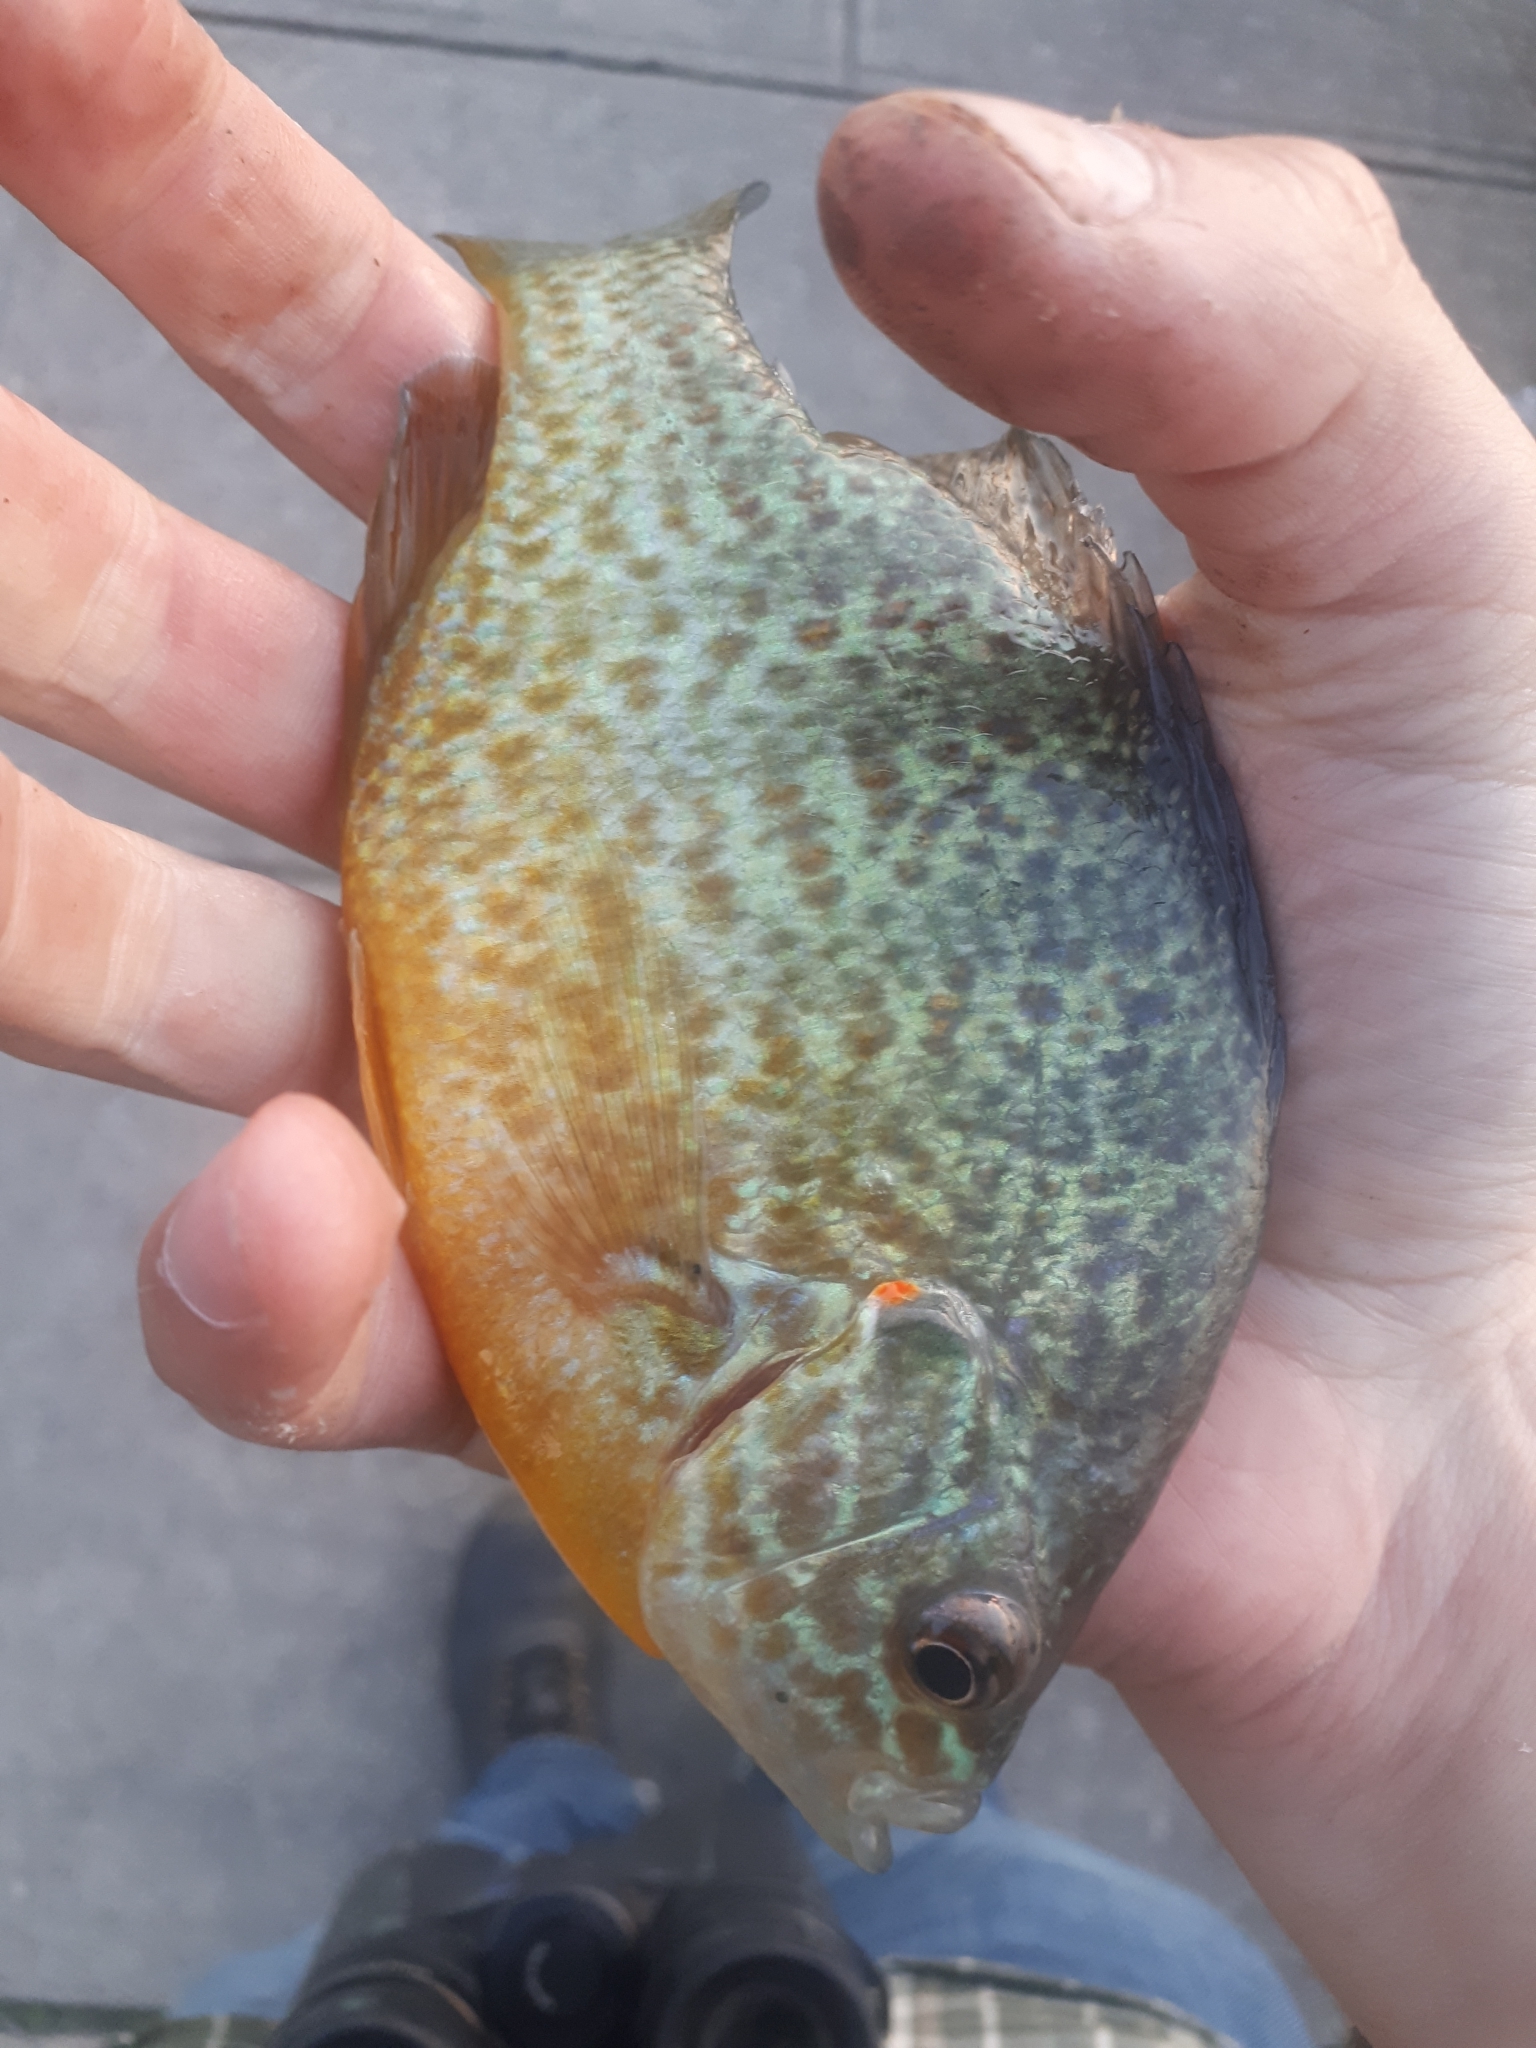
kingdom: Animalia
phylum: Chordata
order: Perciformes
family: Centrarchidae
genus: Lepomis
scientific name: Lepomis gibbosus
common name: Pumpkinseed
